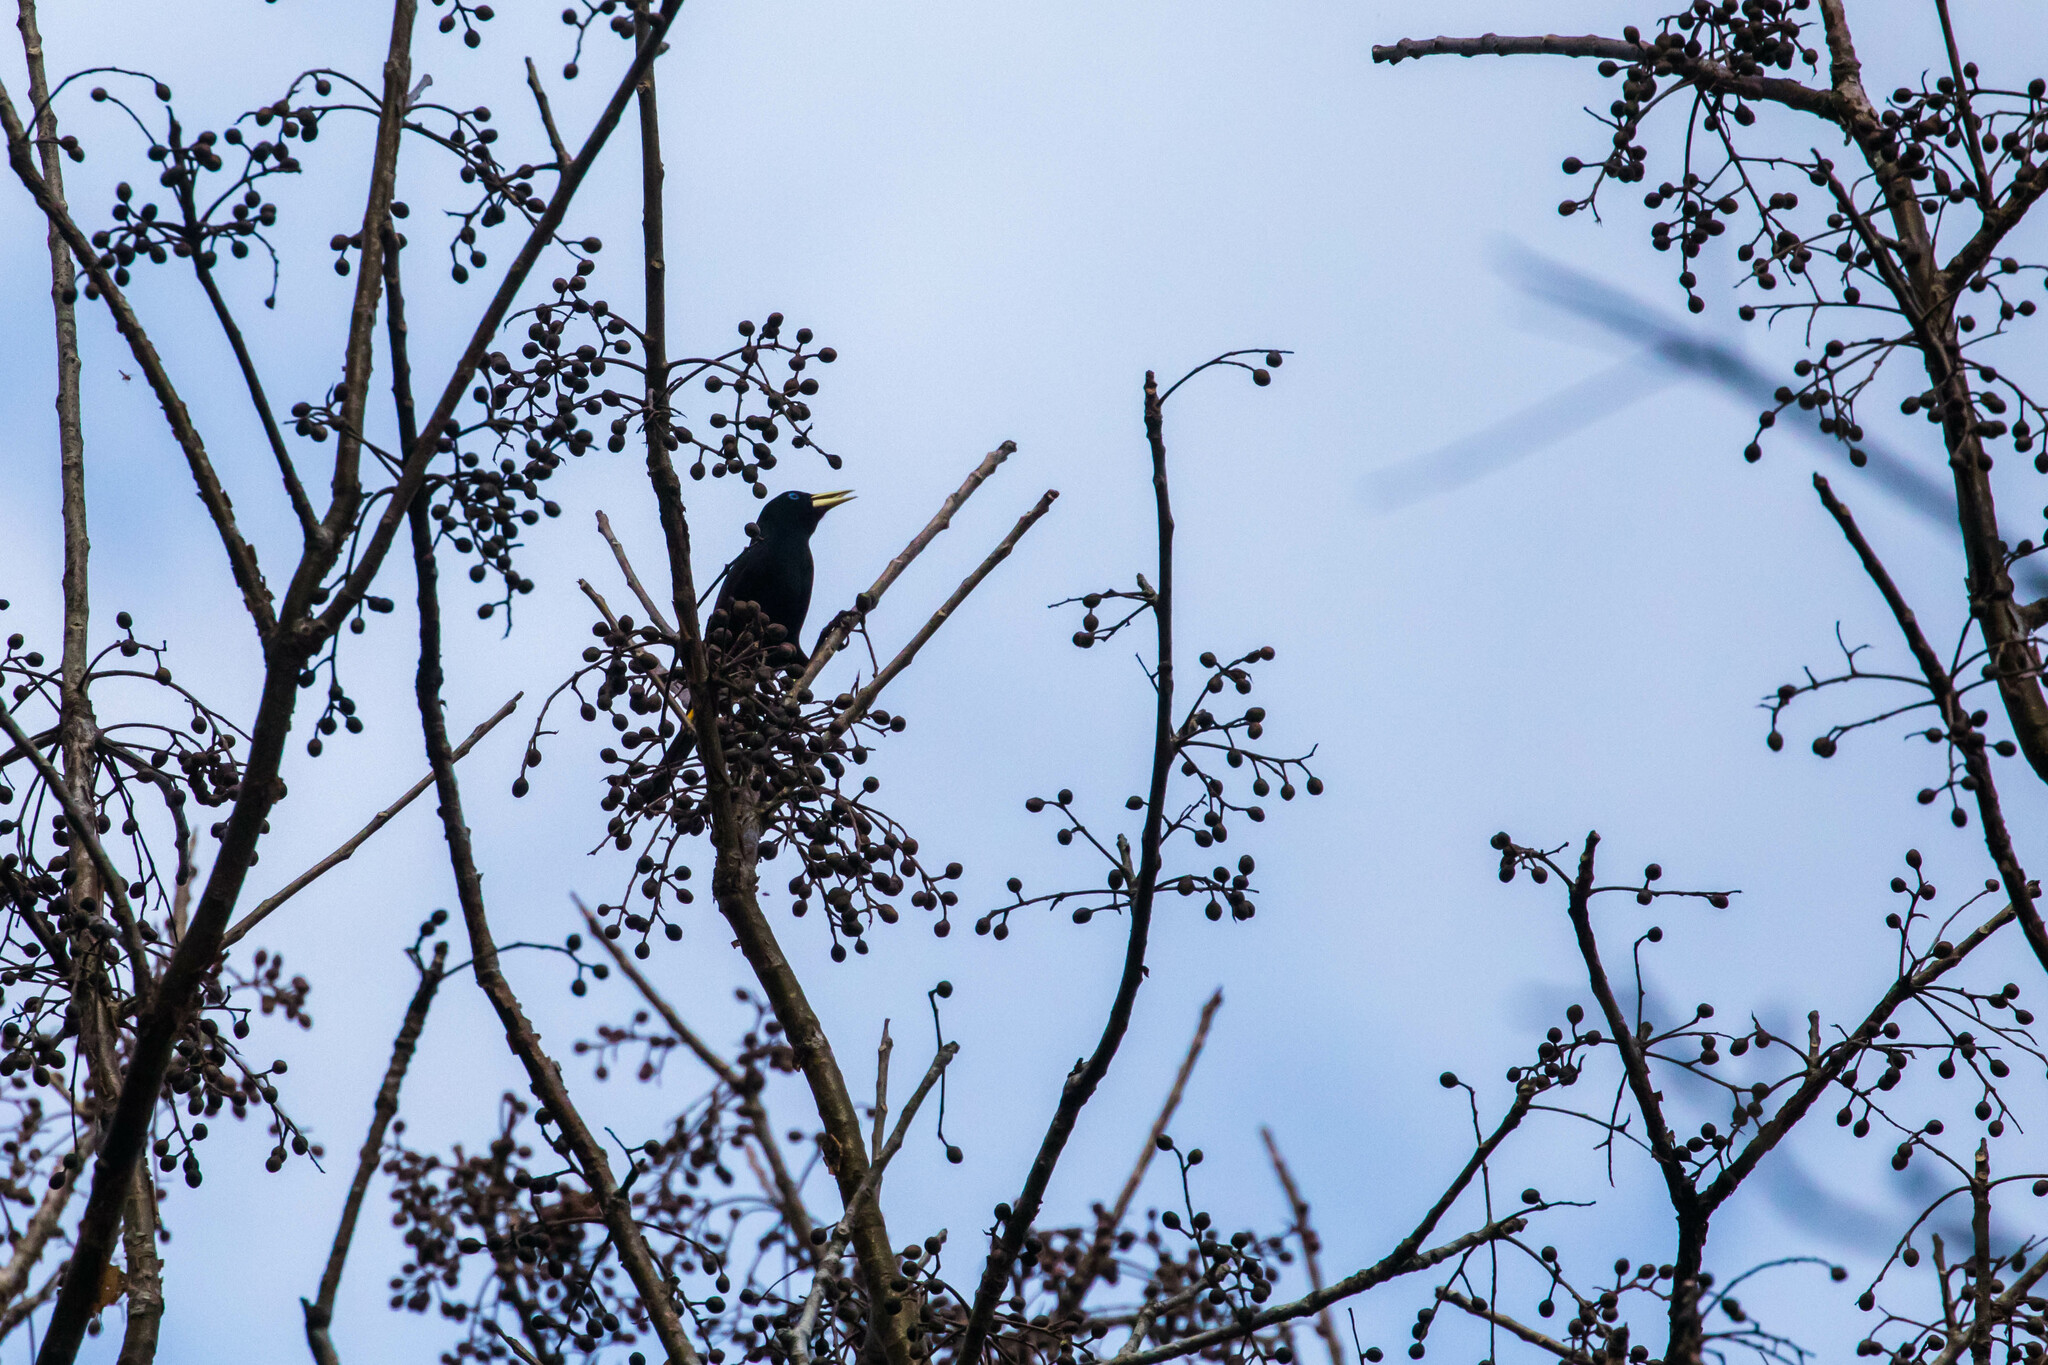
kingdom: Animalia
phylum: Chordata
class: Aves
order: Passeriformes
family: Icteridae
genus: Cacicus
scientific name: Cacicus cela
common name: Yellow-rumped cacique
